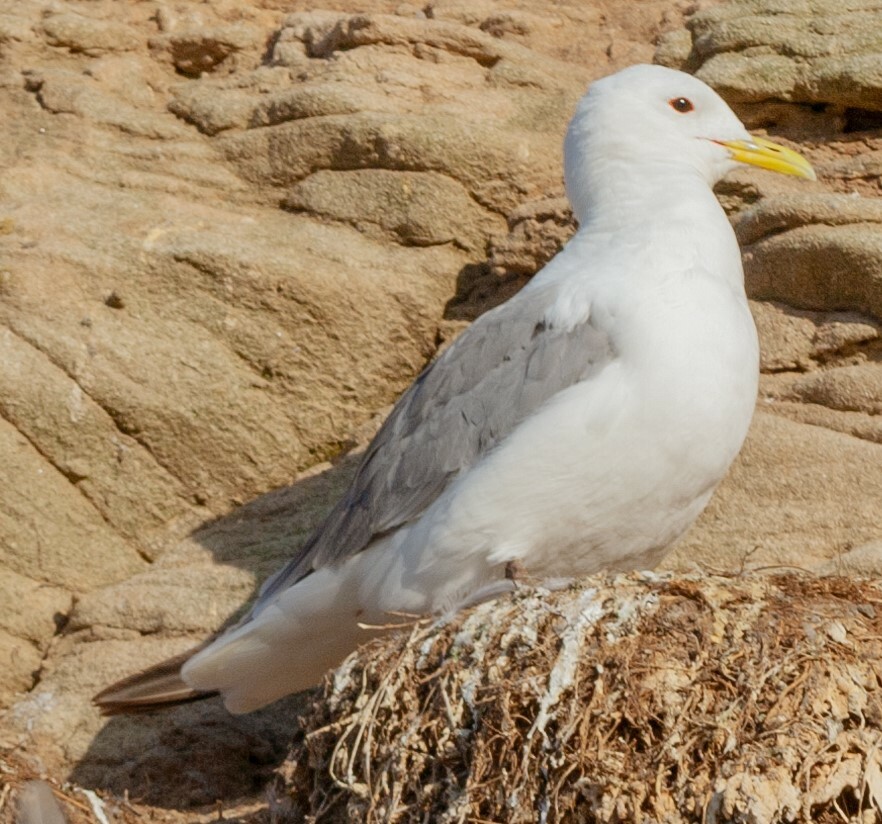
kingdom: Animalia
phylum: Chordata
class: Aves
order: Charadriiformes
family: Laridae
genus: Rissa
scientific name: Rissa tridactyla
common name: Black-legged kittiwake
